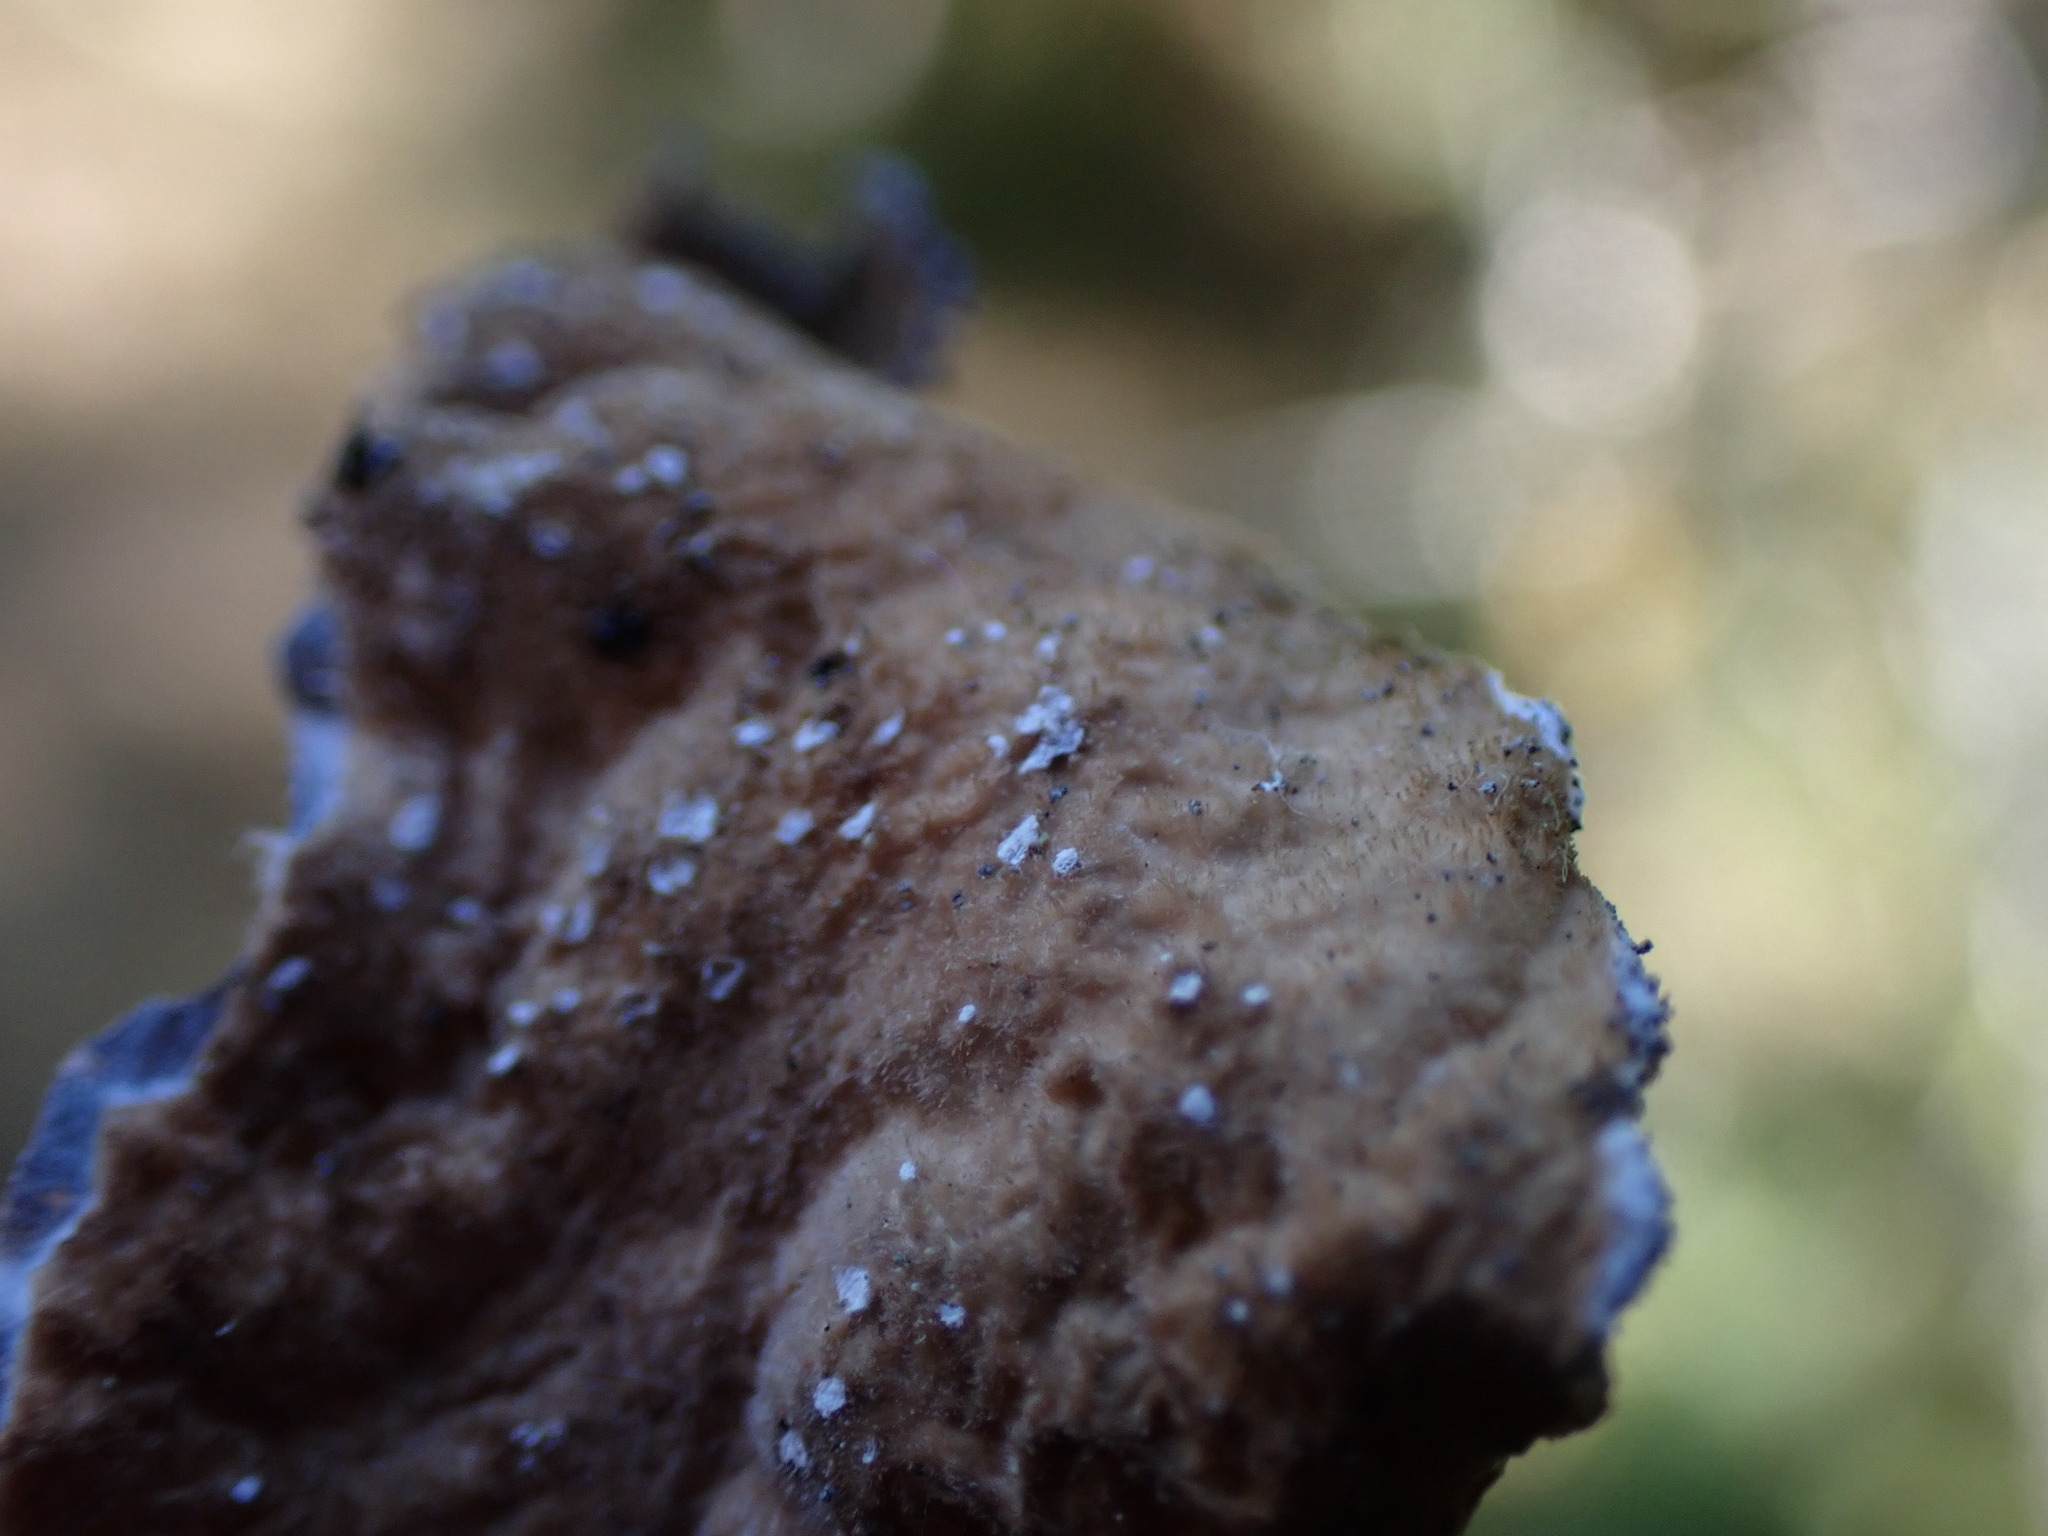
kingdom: Fungi
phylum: Ascomycota
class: Lecanoromycetes
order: Peltigerales
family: Lobariaceae
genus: Lobaria
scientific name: Lobaria anomala
